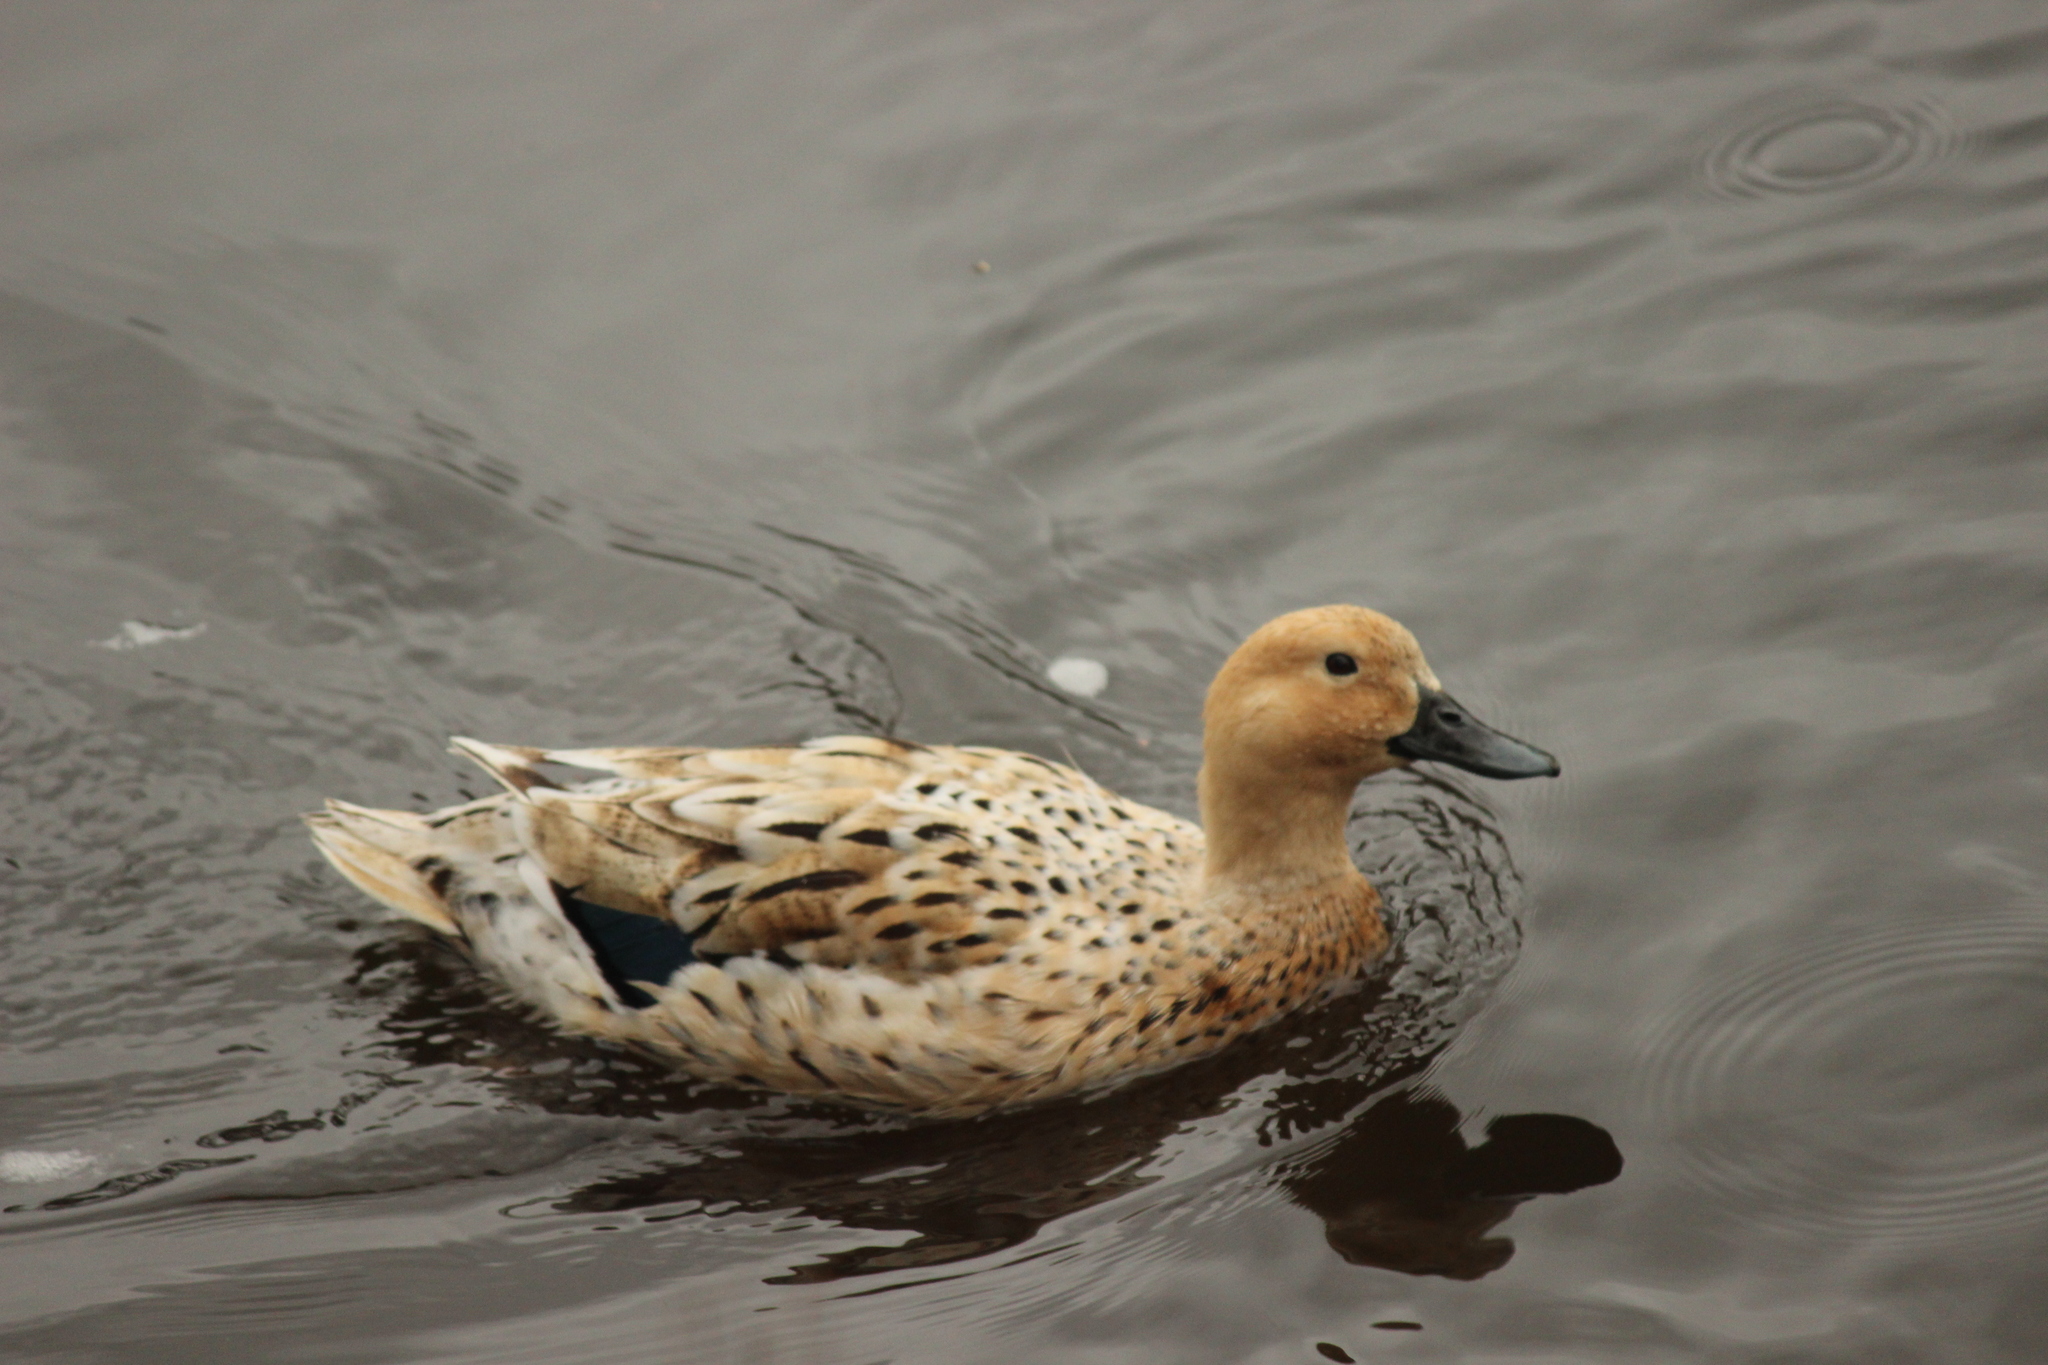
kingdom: Animalia
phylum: Chordata
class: Aves
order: Anseriformes
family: Anatidae
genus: Anas
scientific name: Anas platyrhynchos
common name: Mallard
